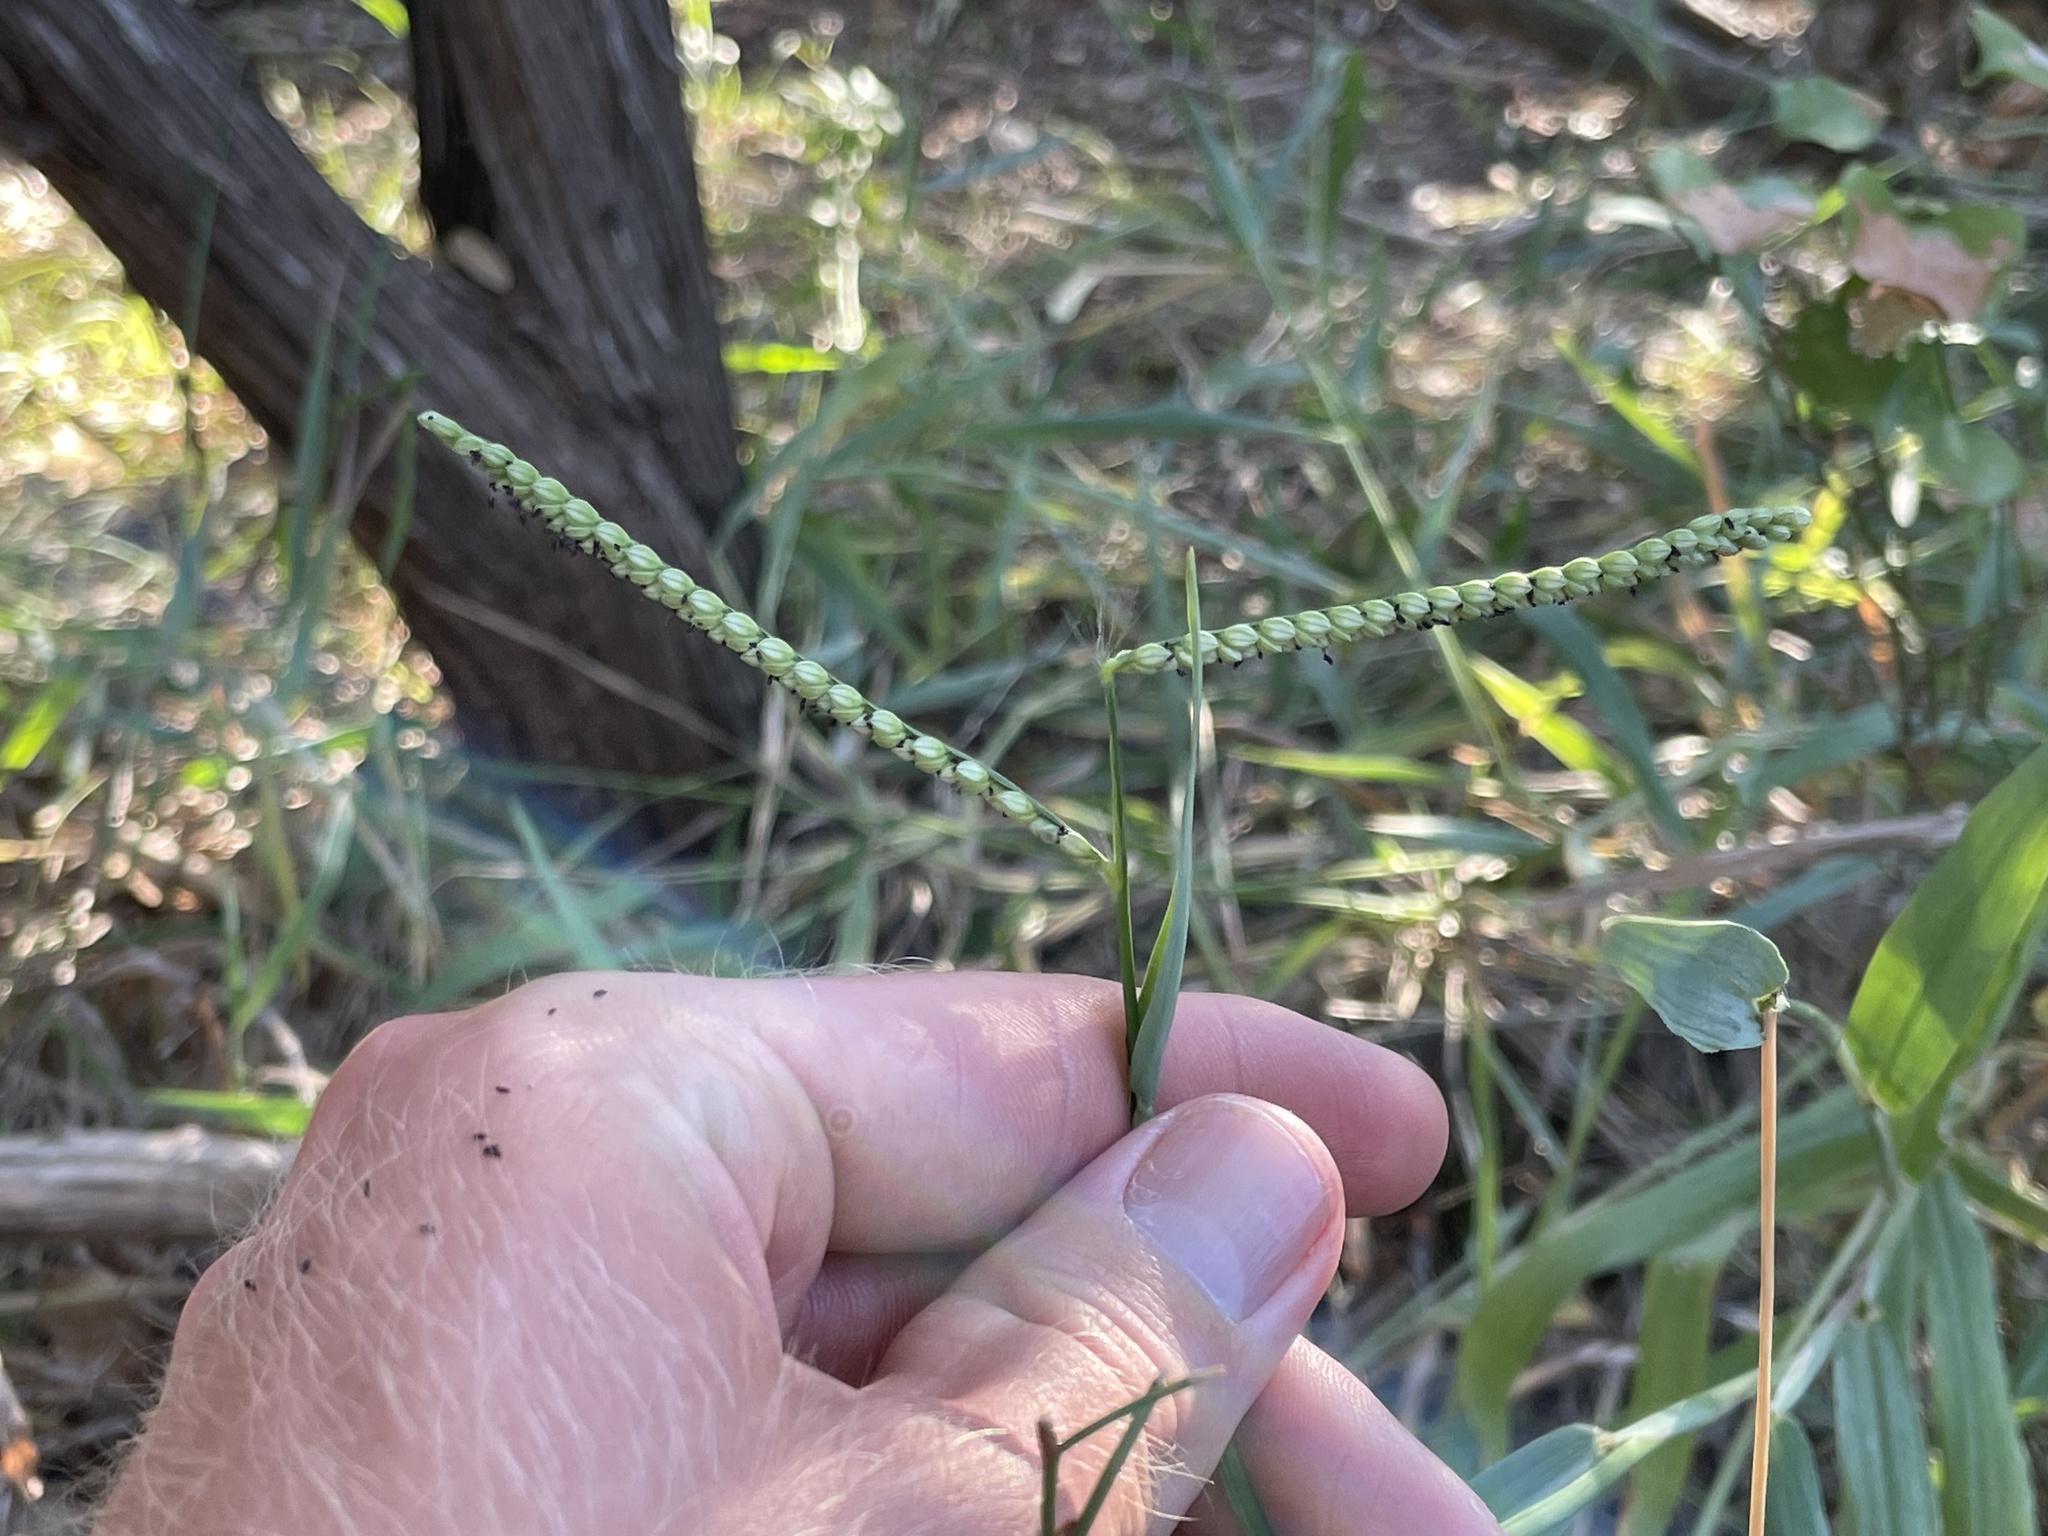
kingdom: Plantae
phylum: Tracheophyta
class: Liliopsida
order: Poales
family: Poaceae
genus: Paspalum
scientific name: Paspalum pubiflorum
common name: Hairy-seed paspalum
